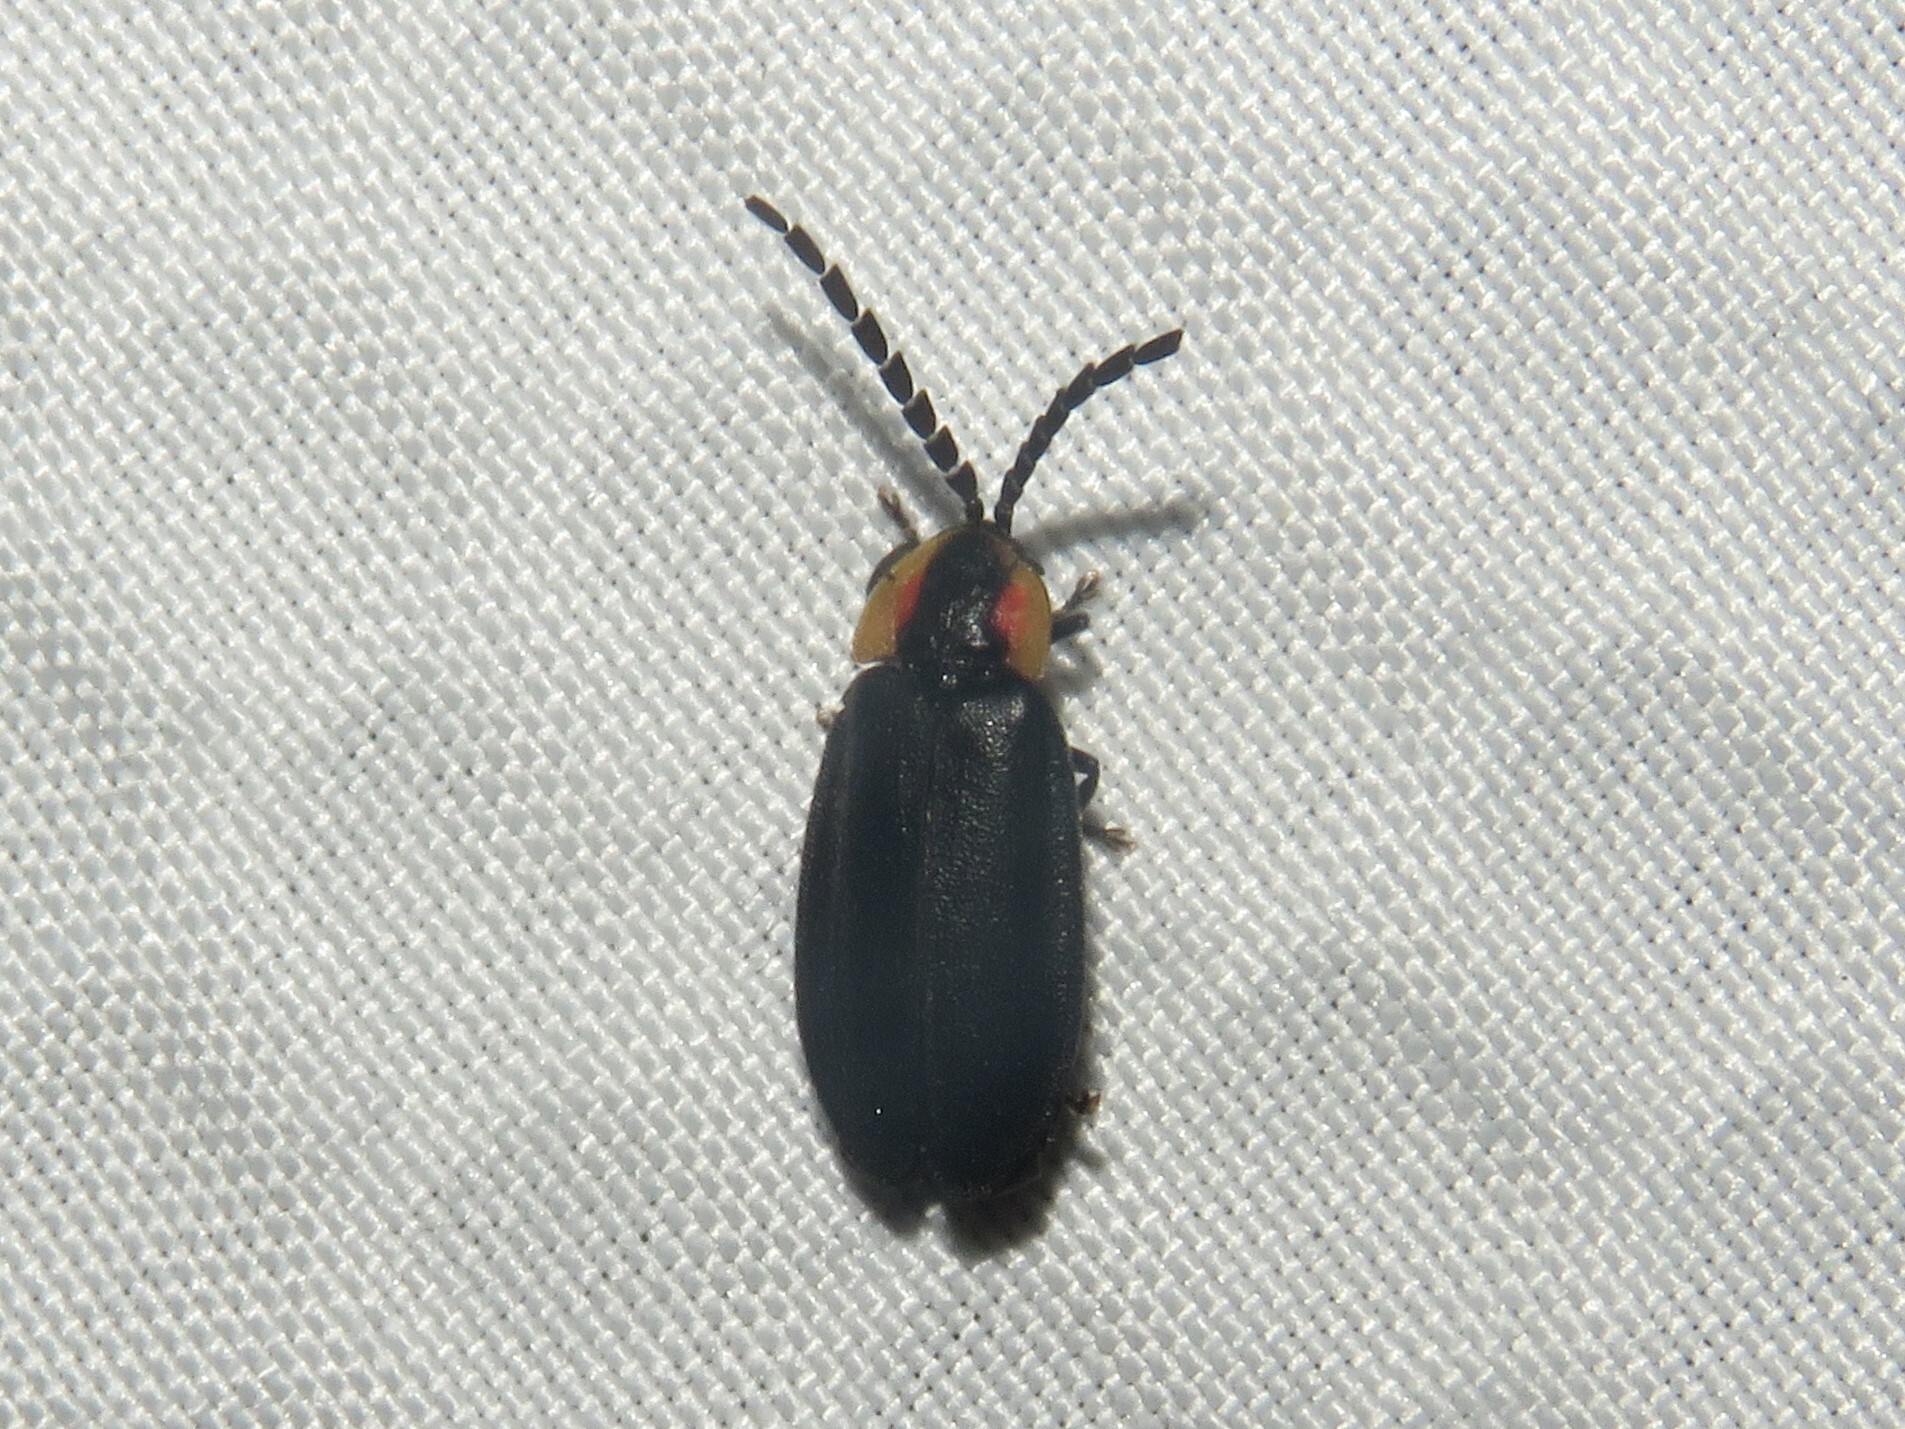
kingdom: Animalia
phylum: Arthropoda
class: Insecta
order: Coleoptera
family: Lampyridae
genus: Lucidota
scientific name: Lucidota atra
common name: Black firefly
